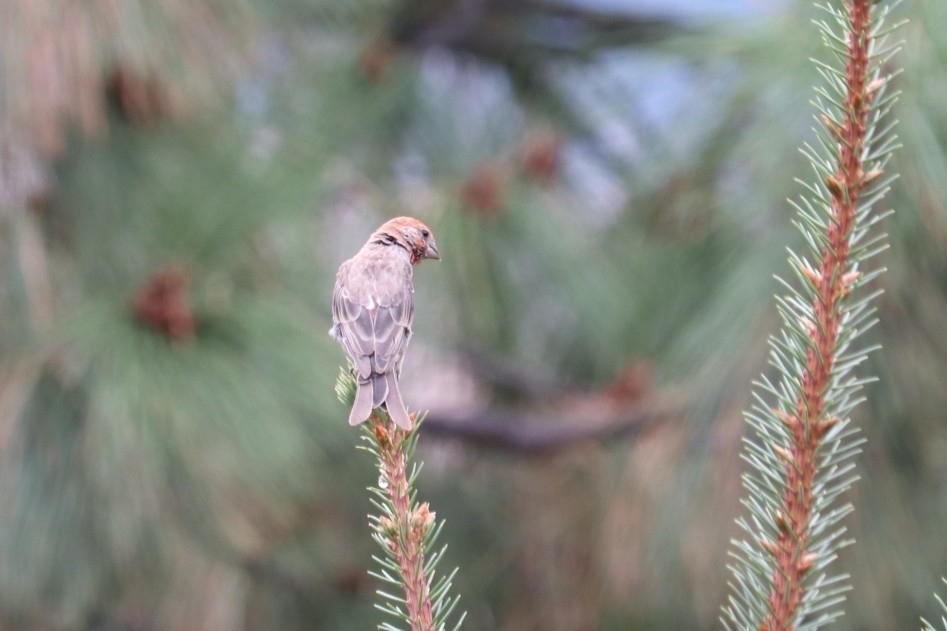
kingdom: Animalia
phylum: Chordata
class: Aves
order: Passeriformes
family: Fringillidae
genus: Haemorhous
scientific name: Haemorhous mexicanus
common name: House finch
